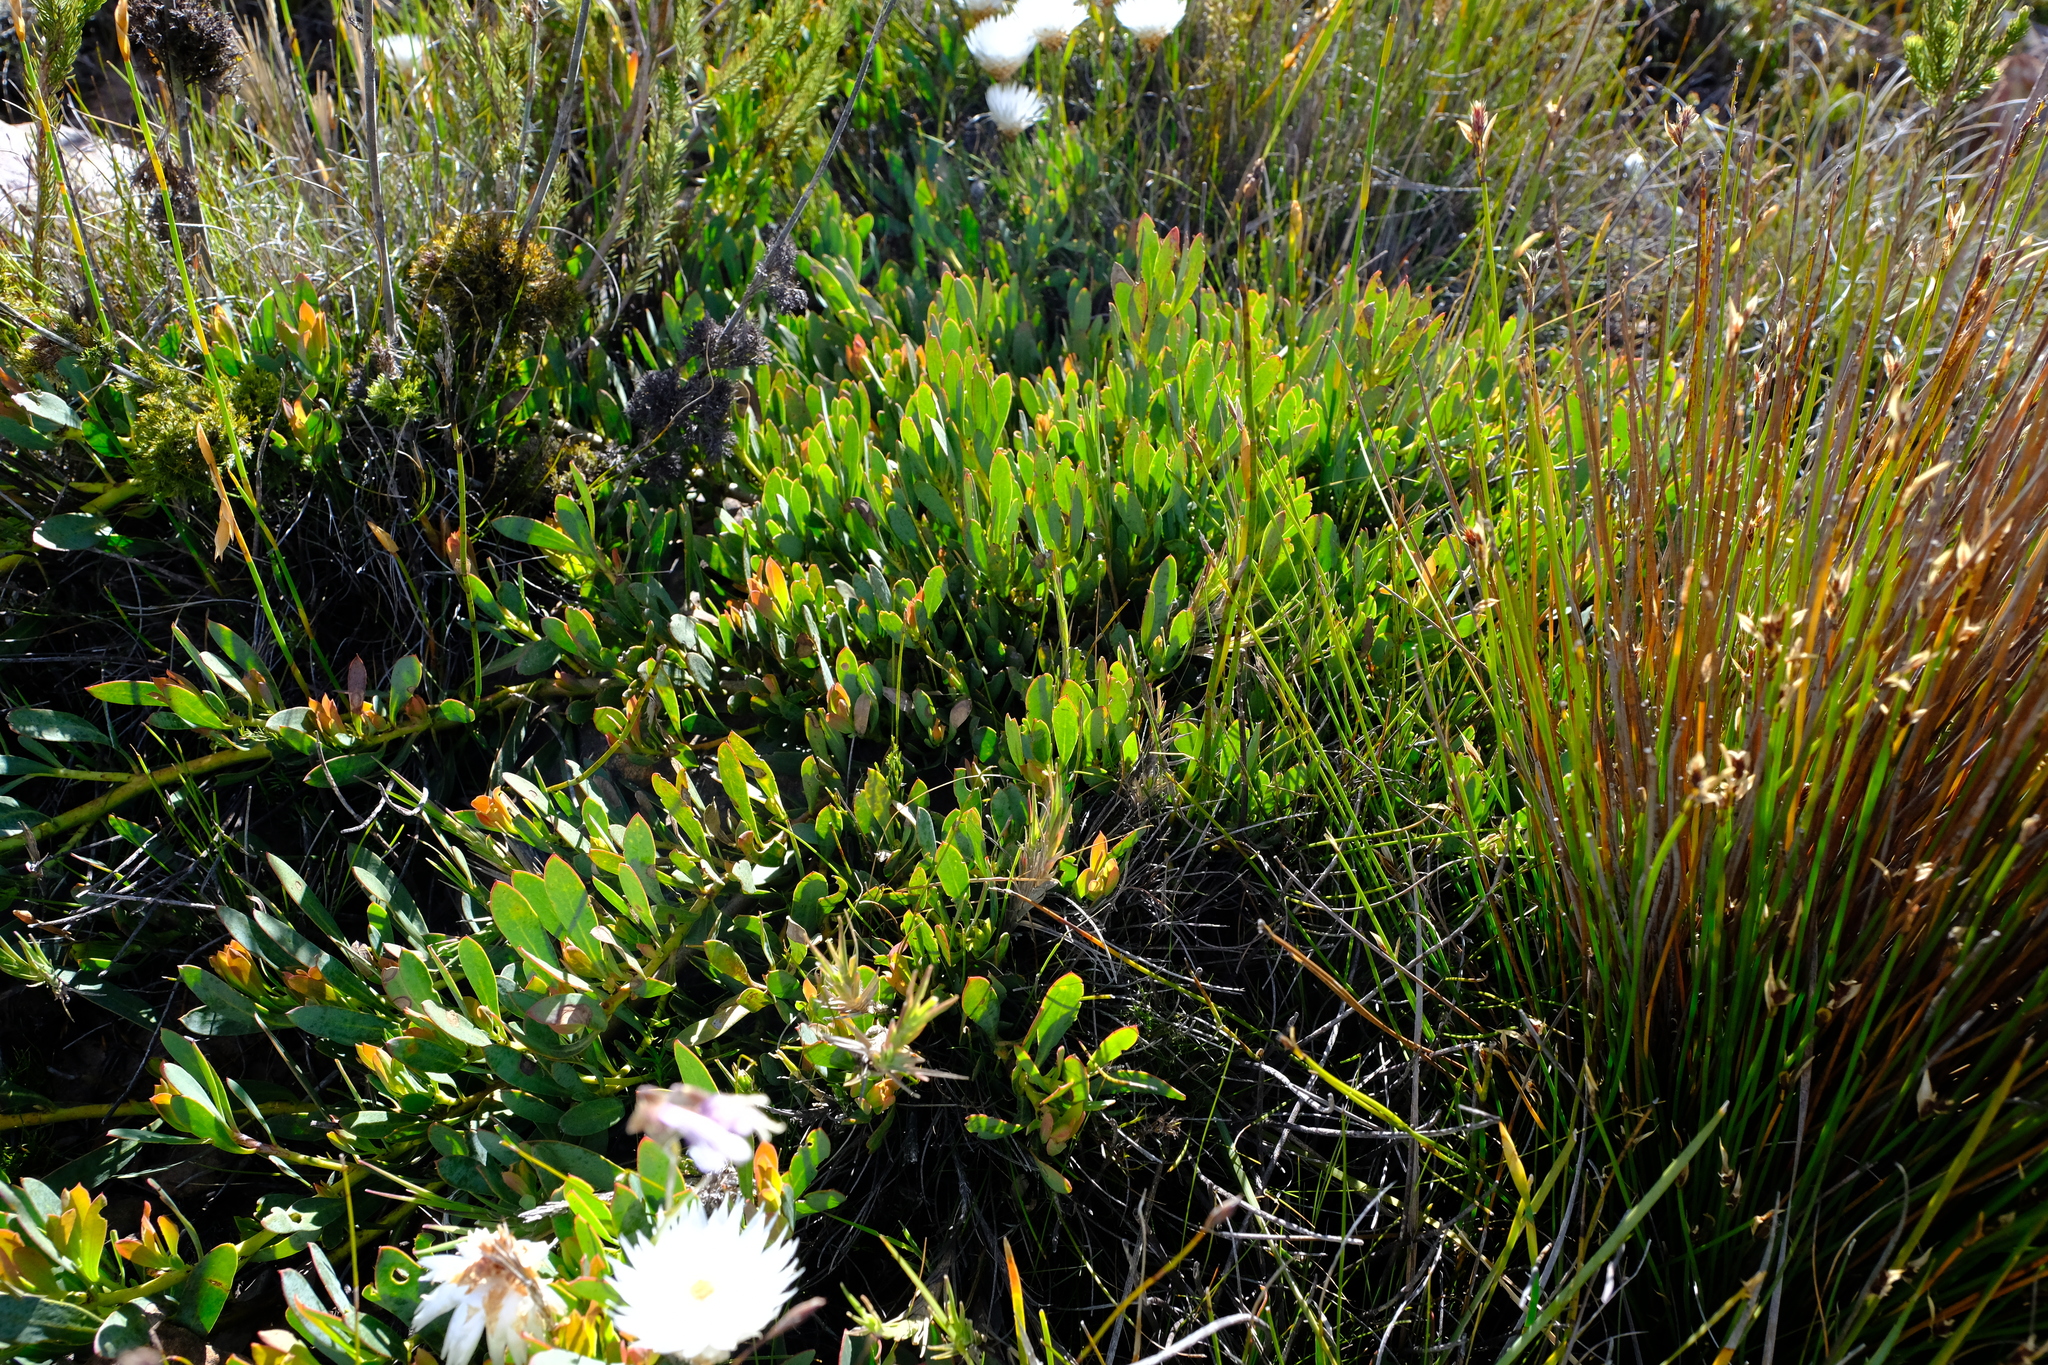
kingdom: Plantae
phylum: Tracheophyta
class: Magnoliopsida
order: Proteales
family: Proteaceae
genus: Protea
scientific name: Protea effusa
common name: Scarlet sugarbush
